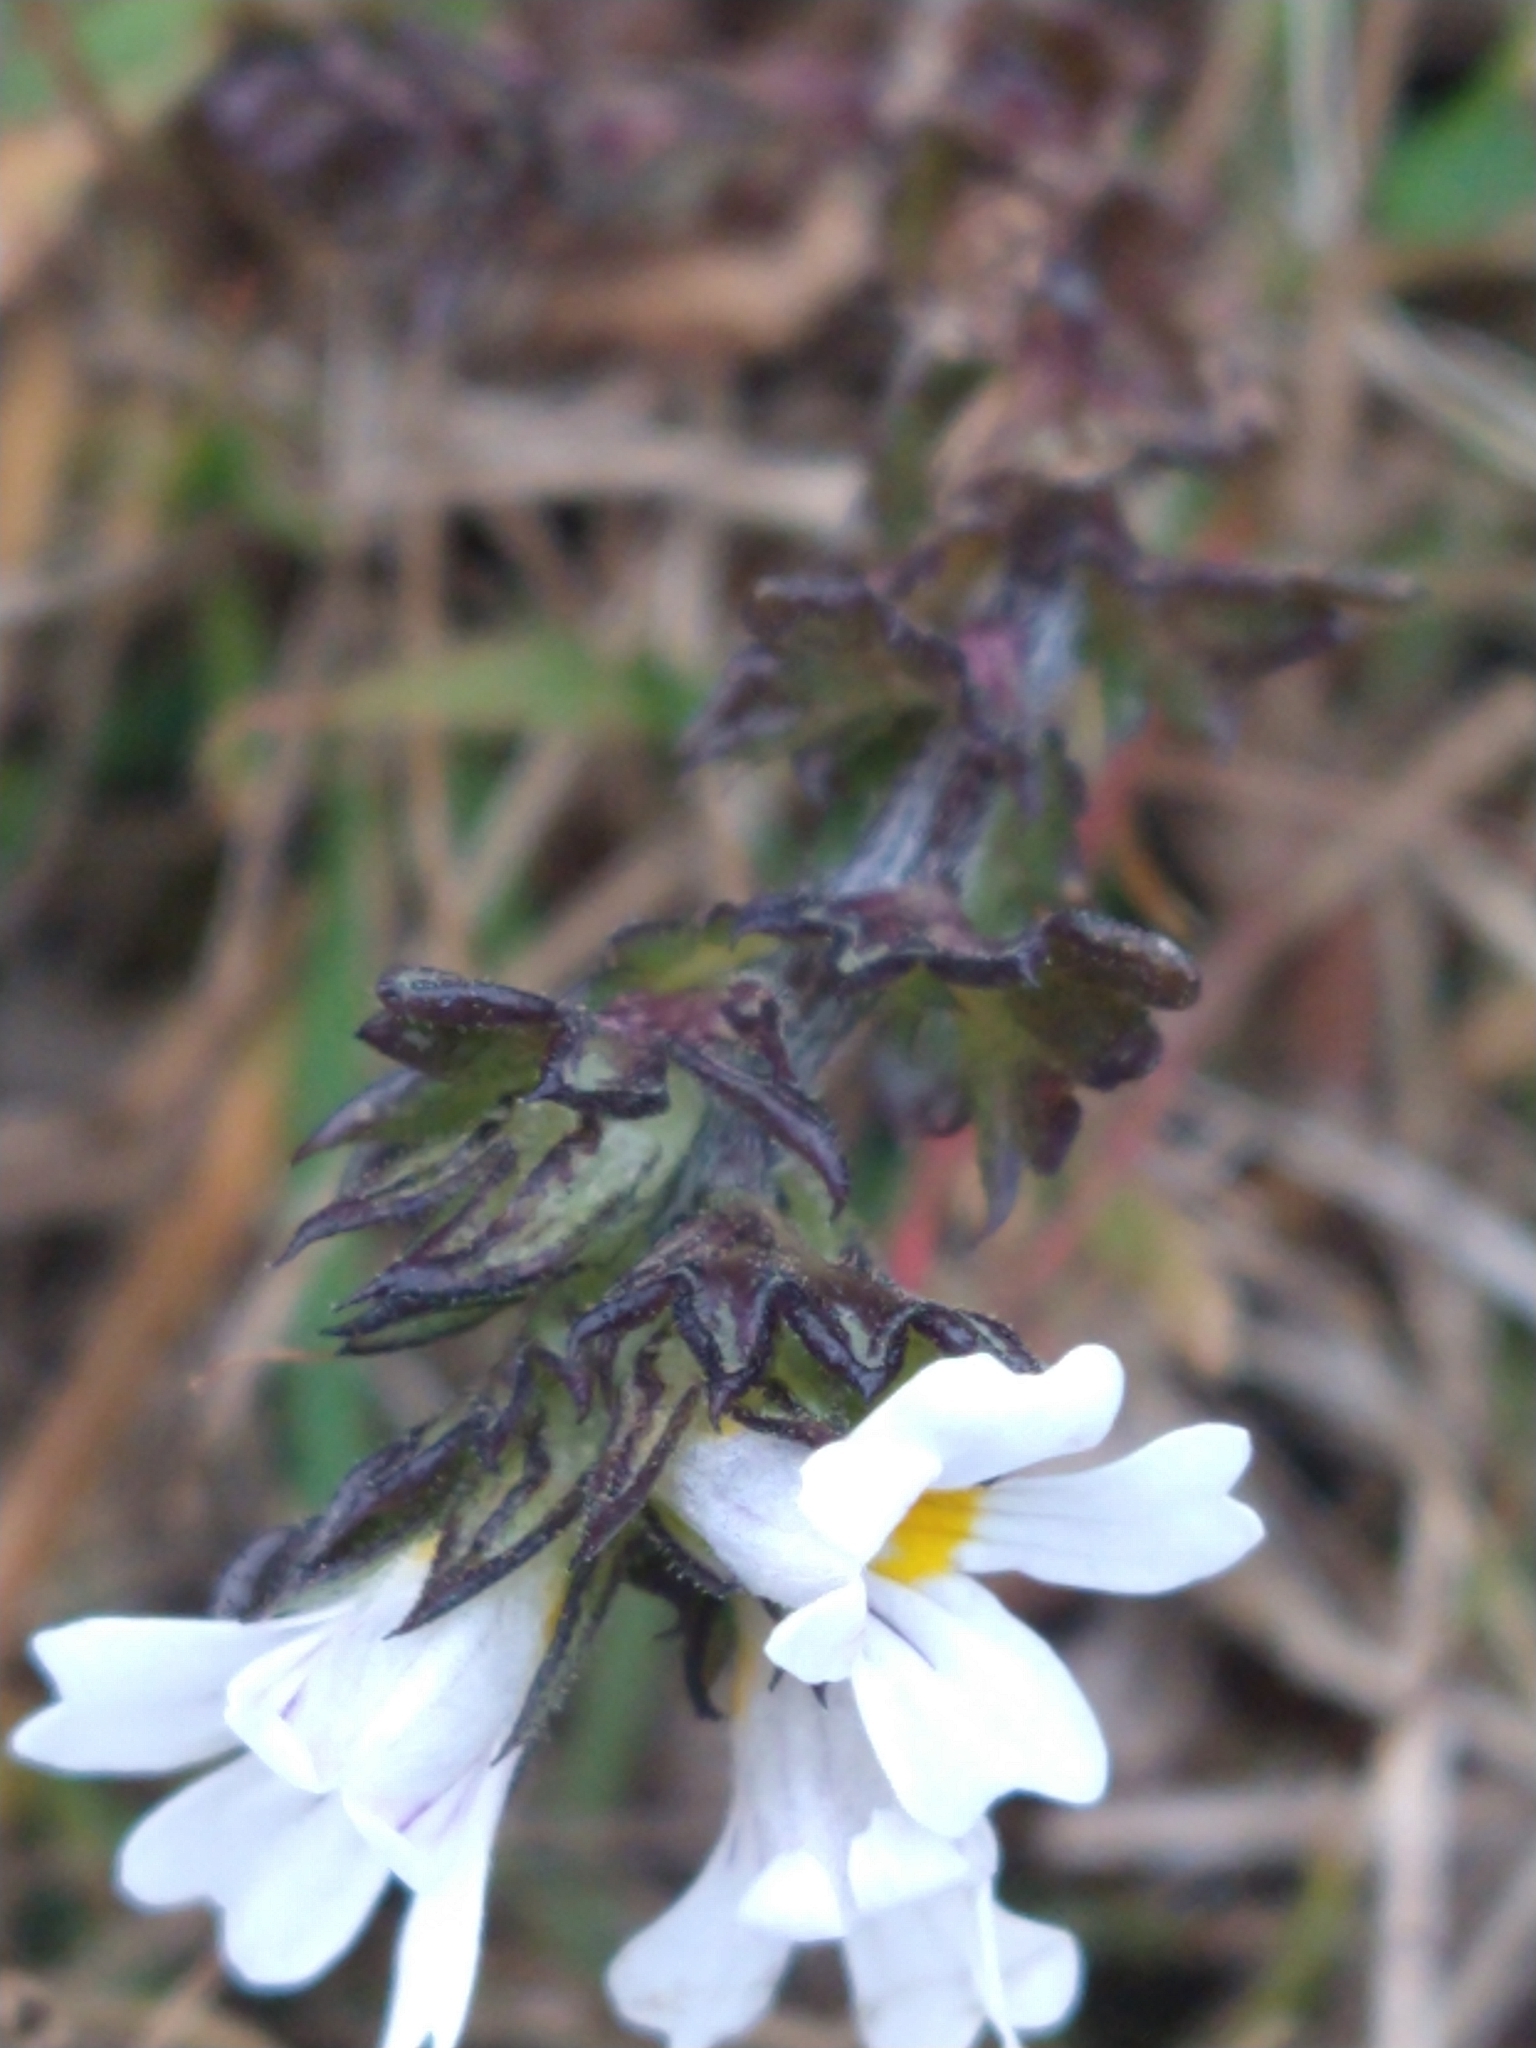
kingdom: Plantae
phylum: Tracheophyta
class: Magnoliopsida
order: Lamiales
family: Orobanchaceae
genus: Euphrasia
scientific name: Euphrasia officinalis
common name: Eyebright
